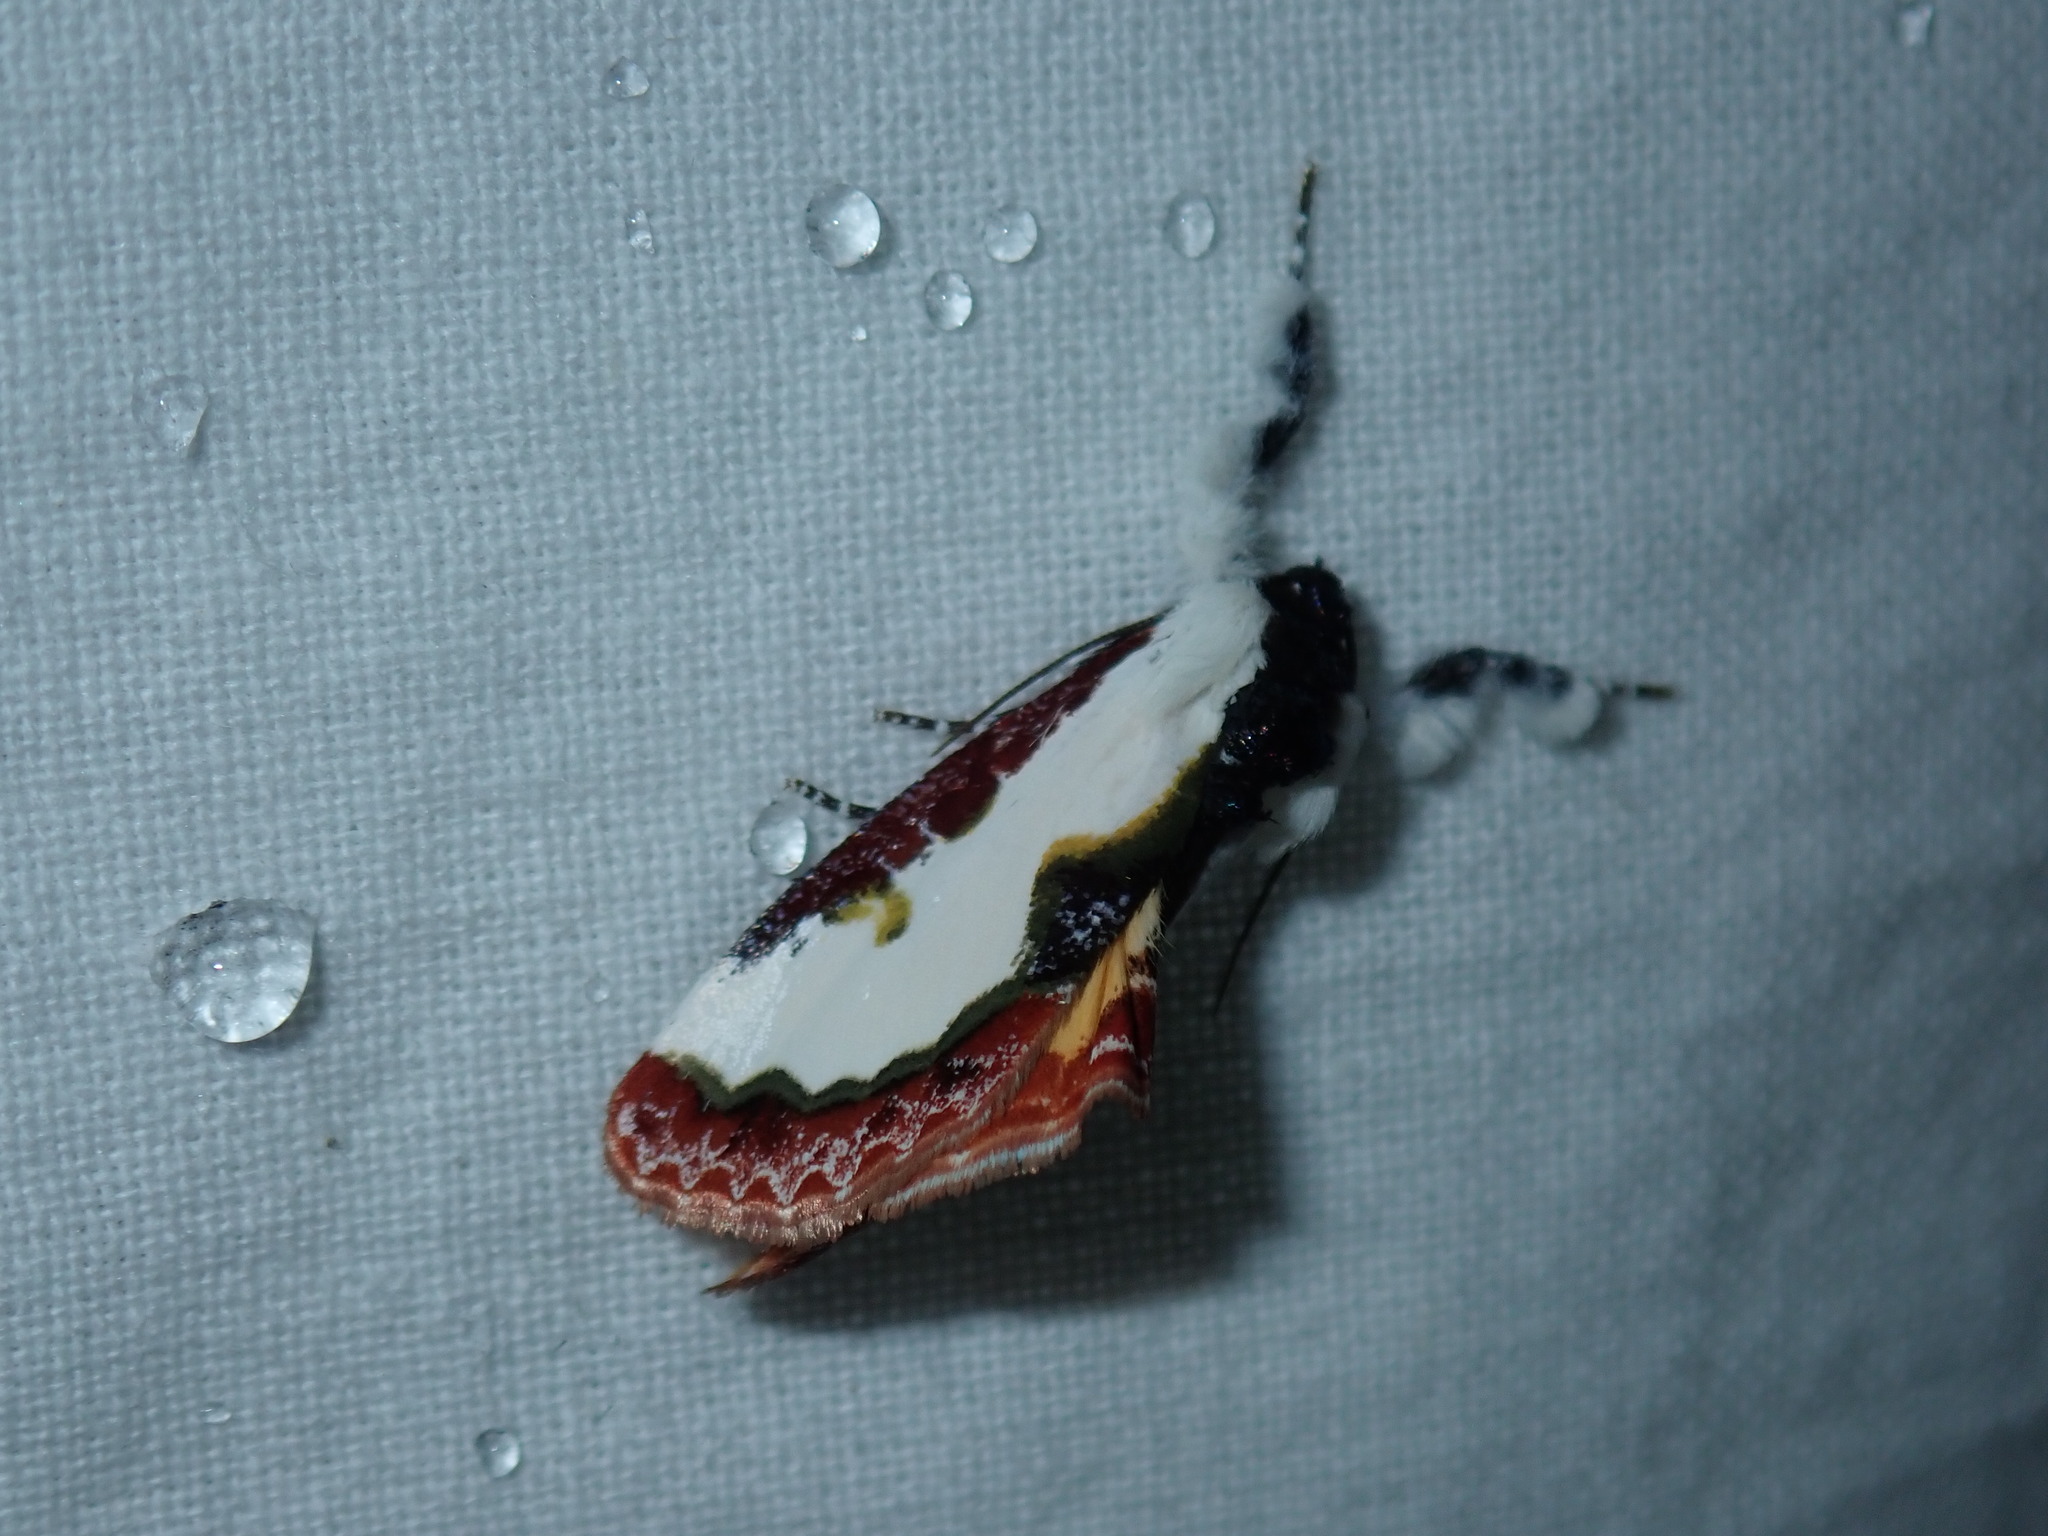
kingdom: Animalia
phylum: Arthropoda
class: Insecta
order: Lepidoptera
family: Noctuidae
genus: Eudryas
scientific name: Eudryas unio
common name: Pearly wood-nymph
